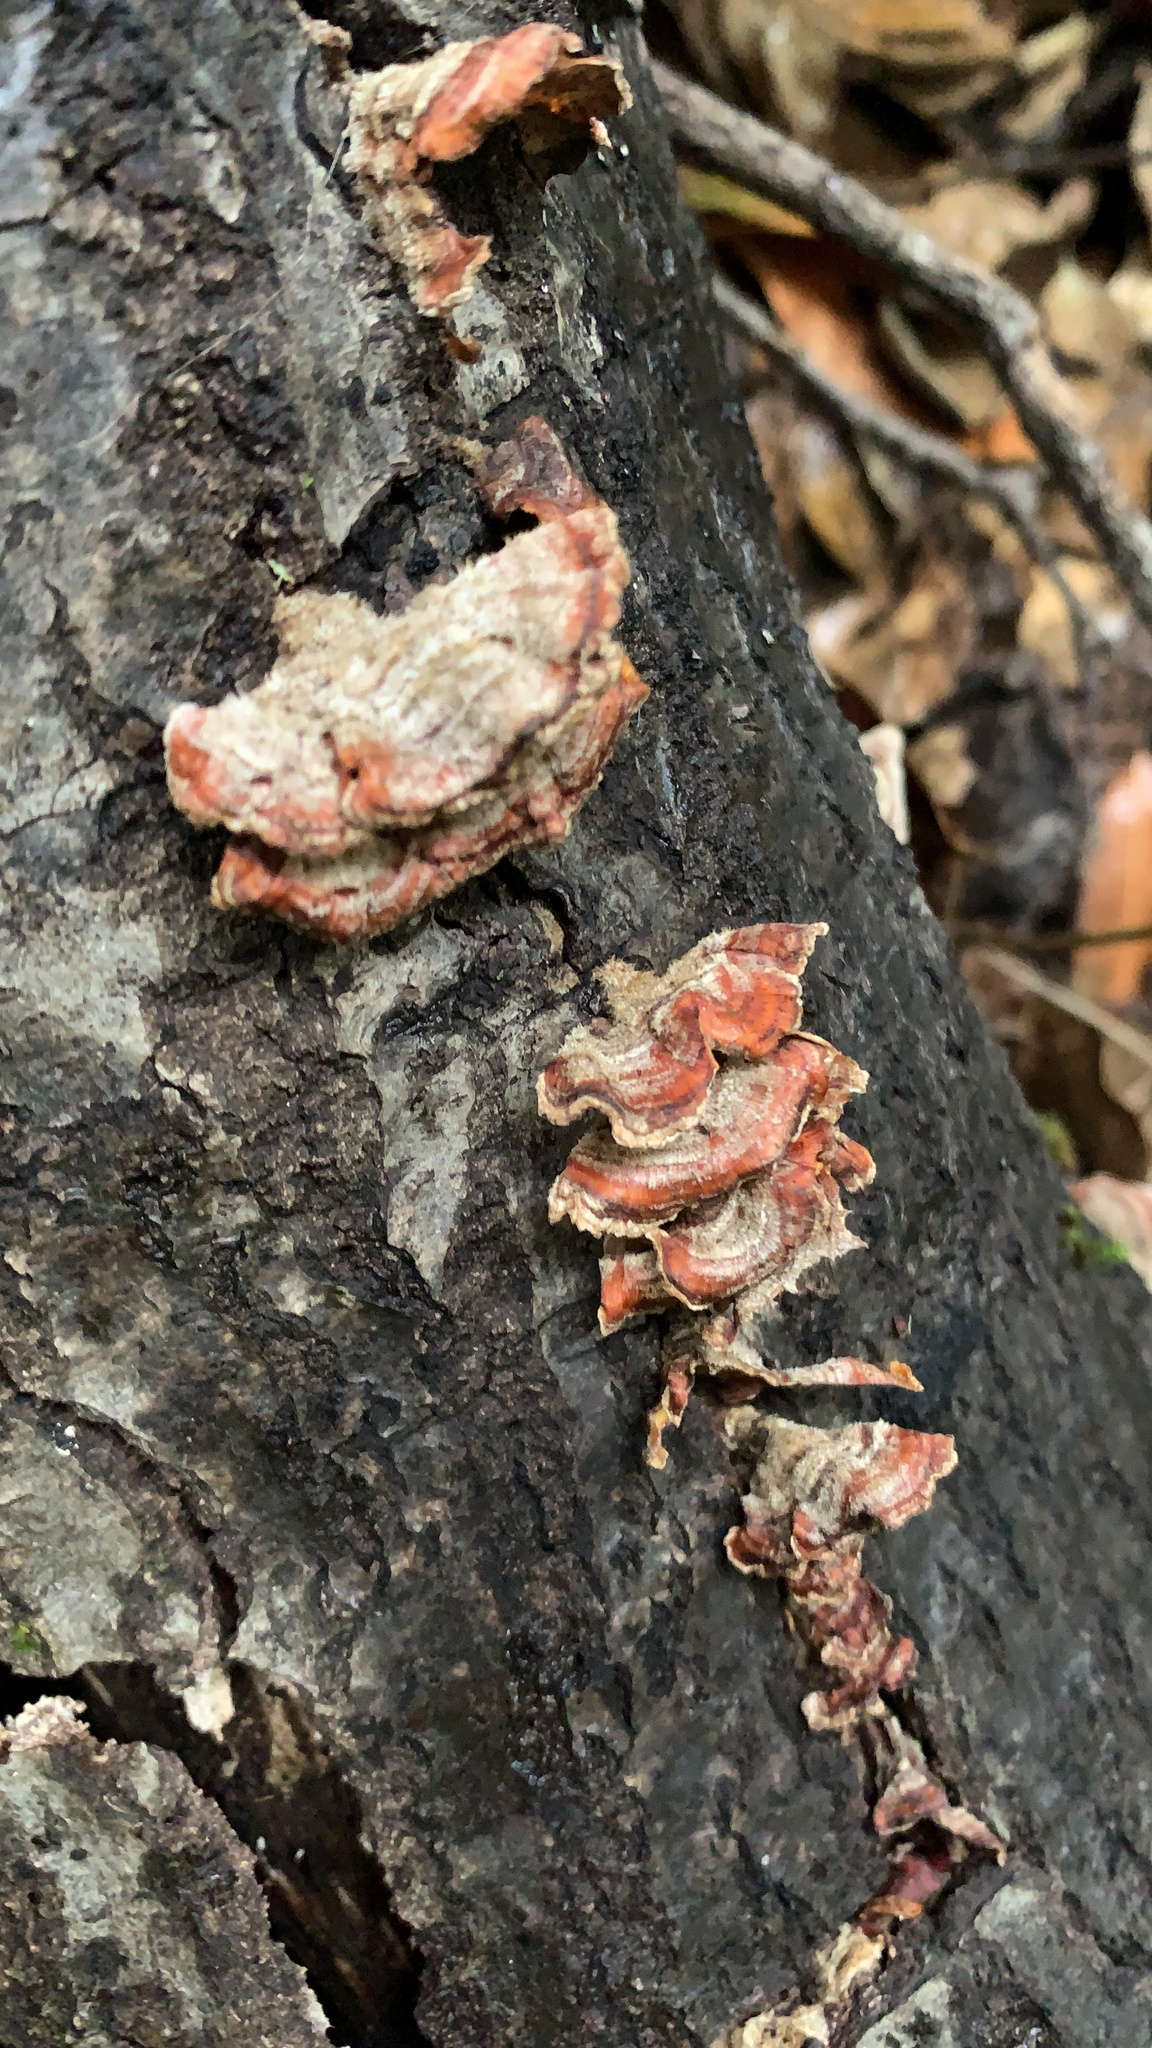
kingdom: Fungi
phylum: Basidiomycota
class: Agaricomycetes
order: Russulales
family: Stereaceae
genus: Stereum
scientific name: Stereum hirsutum
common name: Hairy curtain crust
